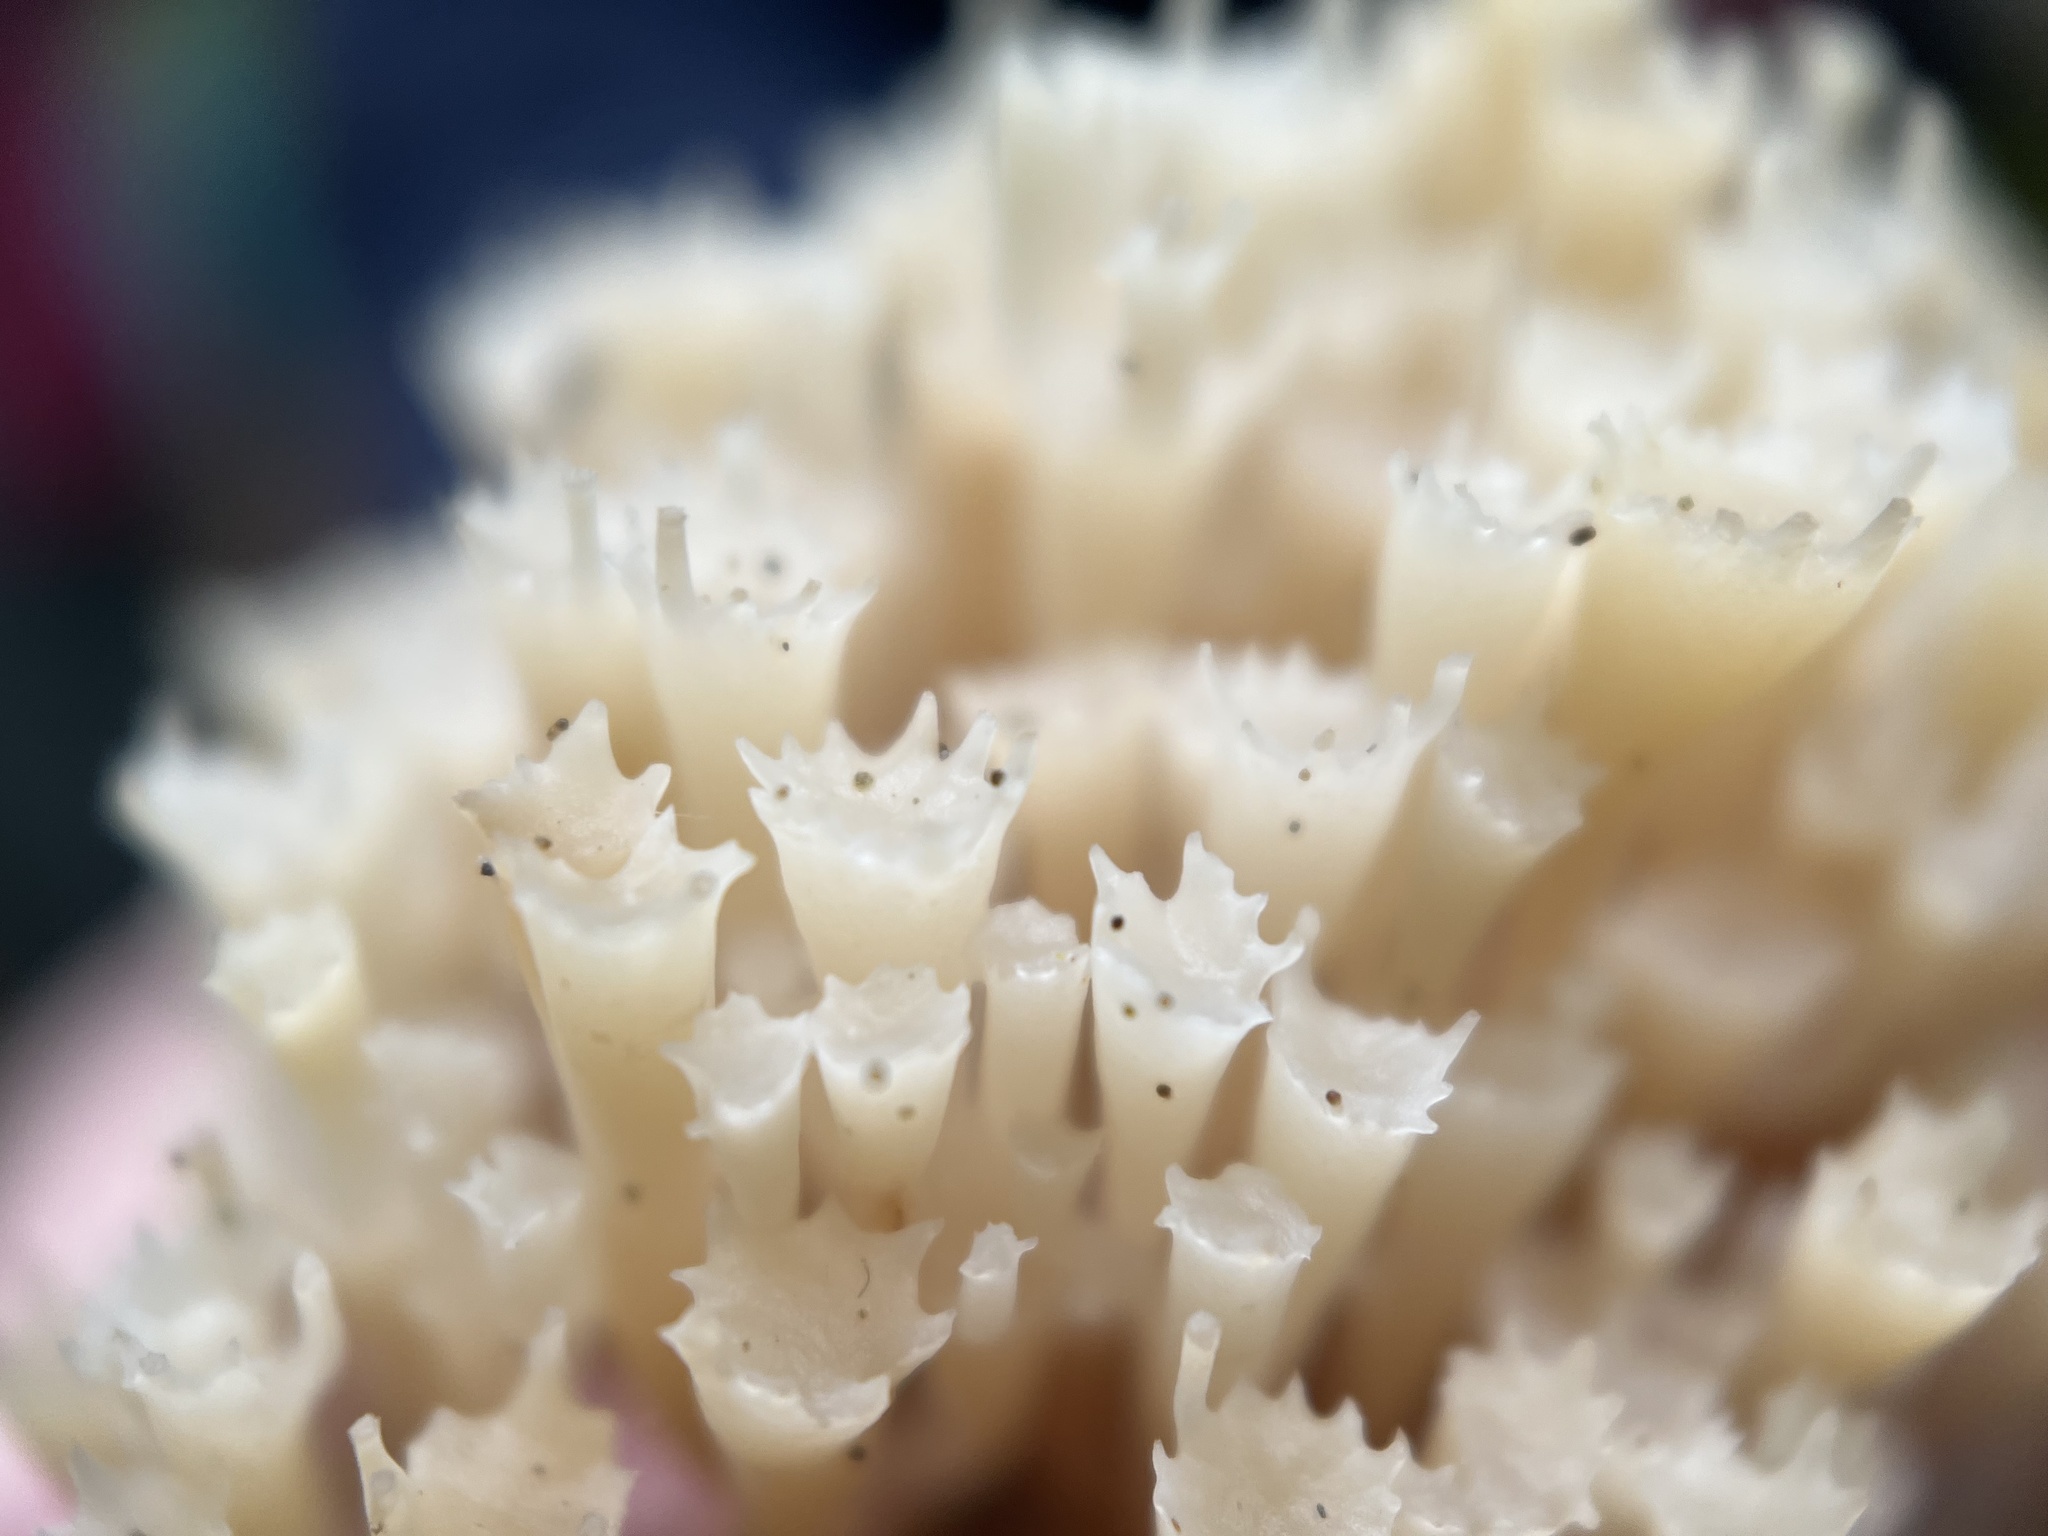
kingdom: Fungi
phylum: Basidiomycota
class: Agaricomycetes
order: Russulales
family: Auriscalpiaceae
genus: Artomyces
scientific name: Artomyces pyxidatus
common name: Crown-tipped coral fungus
